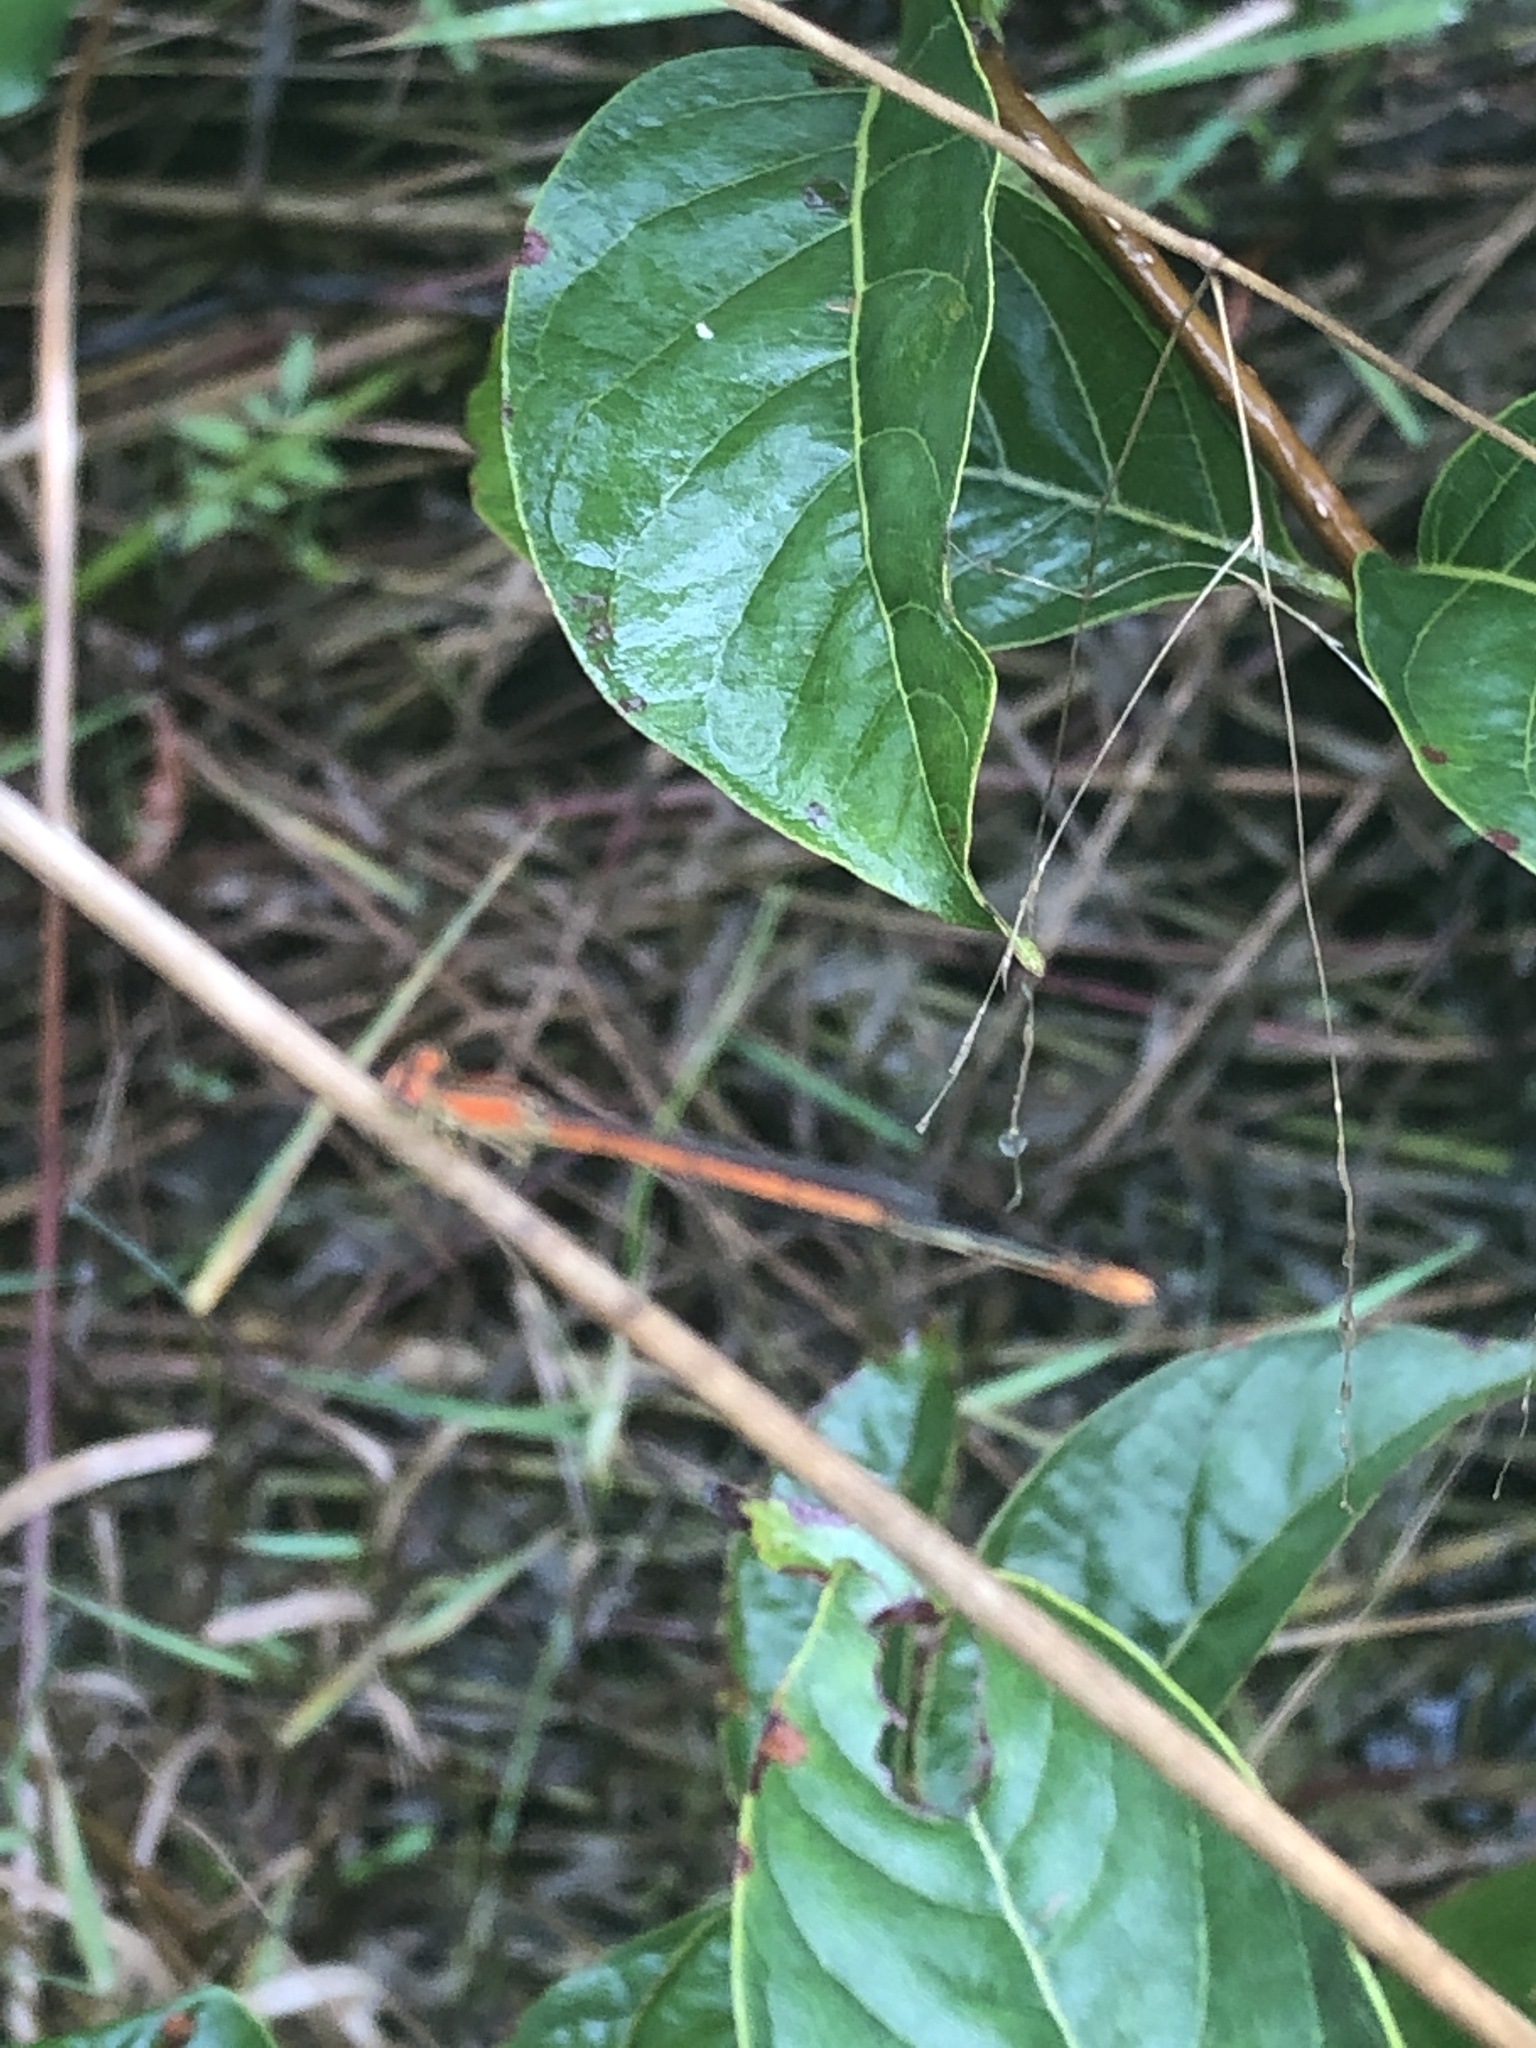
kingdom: Animalia
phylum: Arthropoda
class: Insecta
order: Odonata
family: Coenagrionidae
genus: Ischnura
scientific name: Ischnura hastata
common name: Citrine forktail
